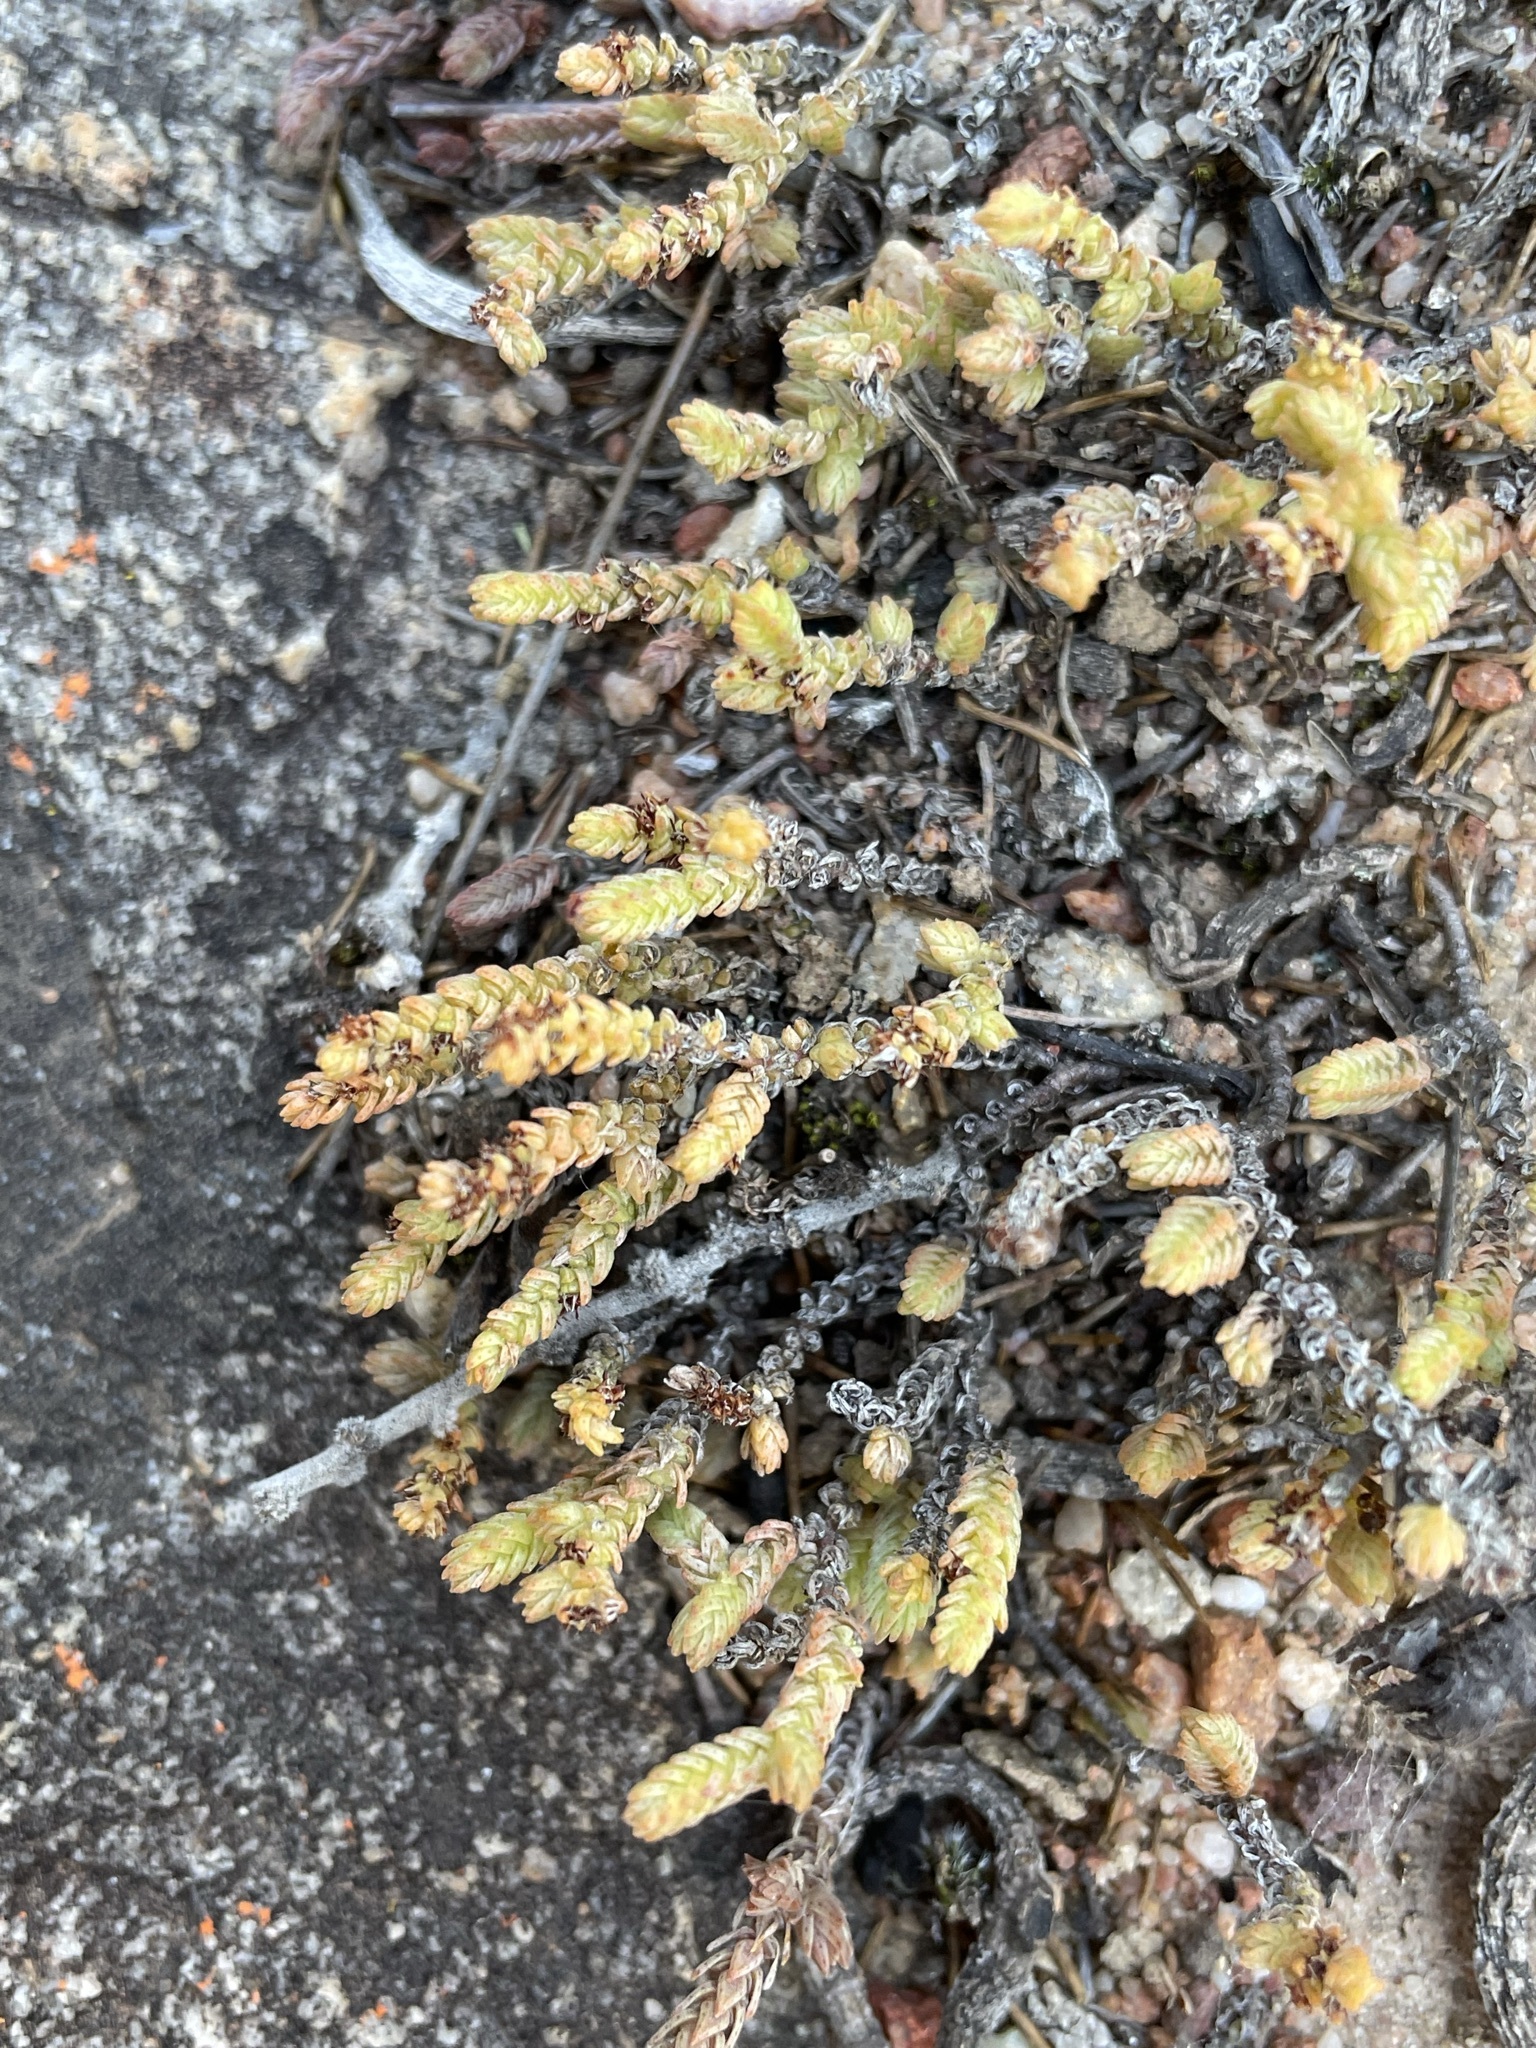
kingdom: Plantae
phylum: Tracheophyta
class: Magnoliopsida
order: Saxifragales
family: Crassulaceae
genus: Crassula
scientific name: Crassula muscosa
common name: Toy-cypress
